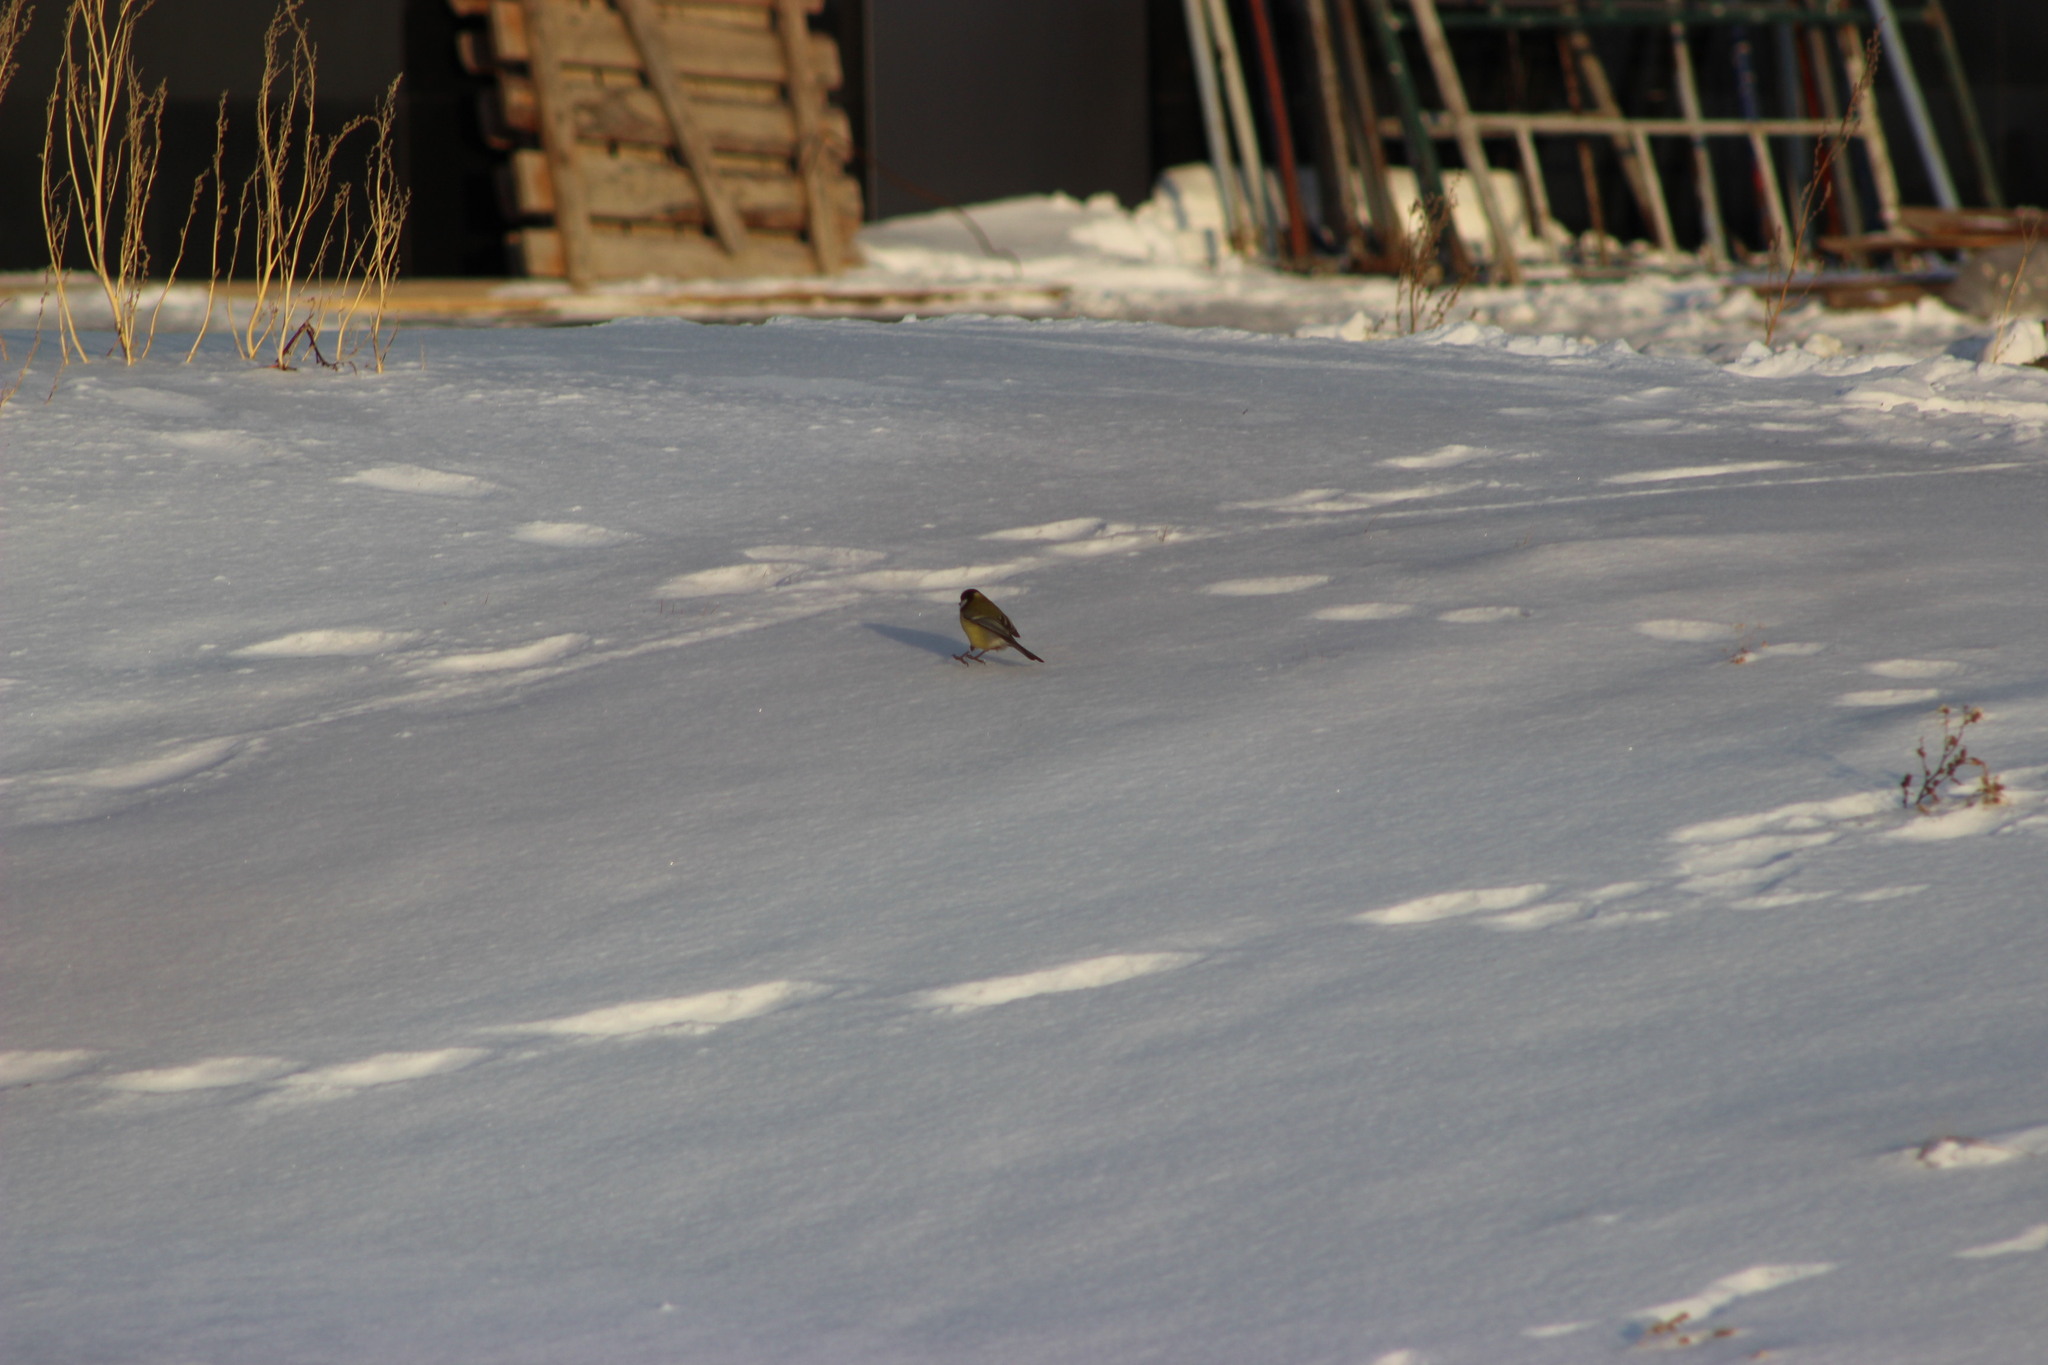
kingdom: Animalia
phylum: Chordata
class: Aves
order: Passeriformes
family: Paridae
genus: Parus
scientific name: Parus major
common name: Great tit
